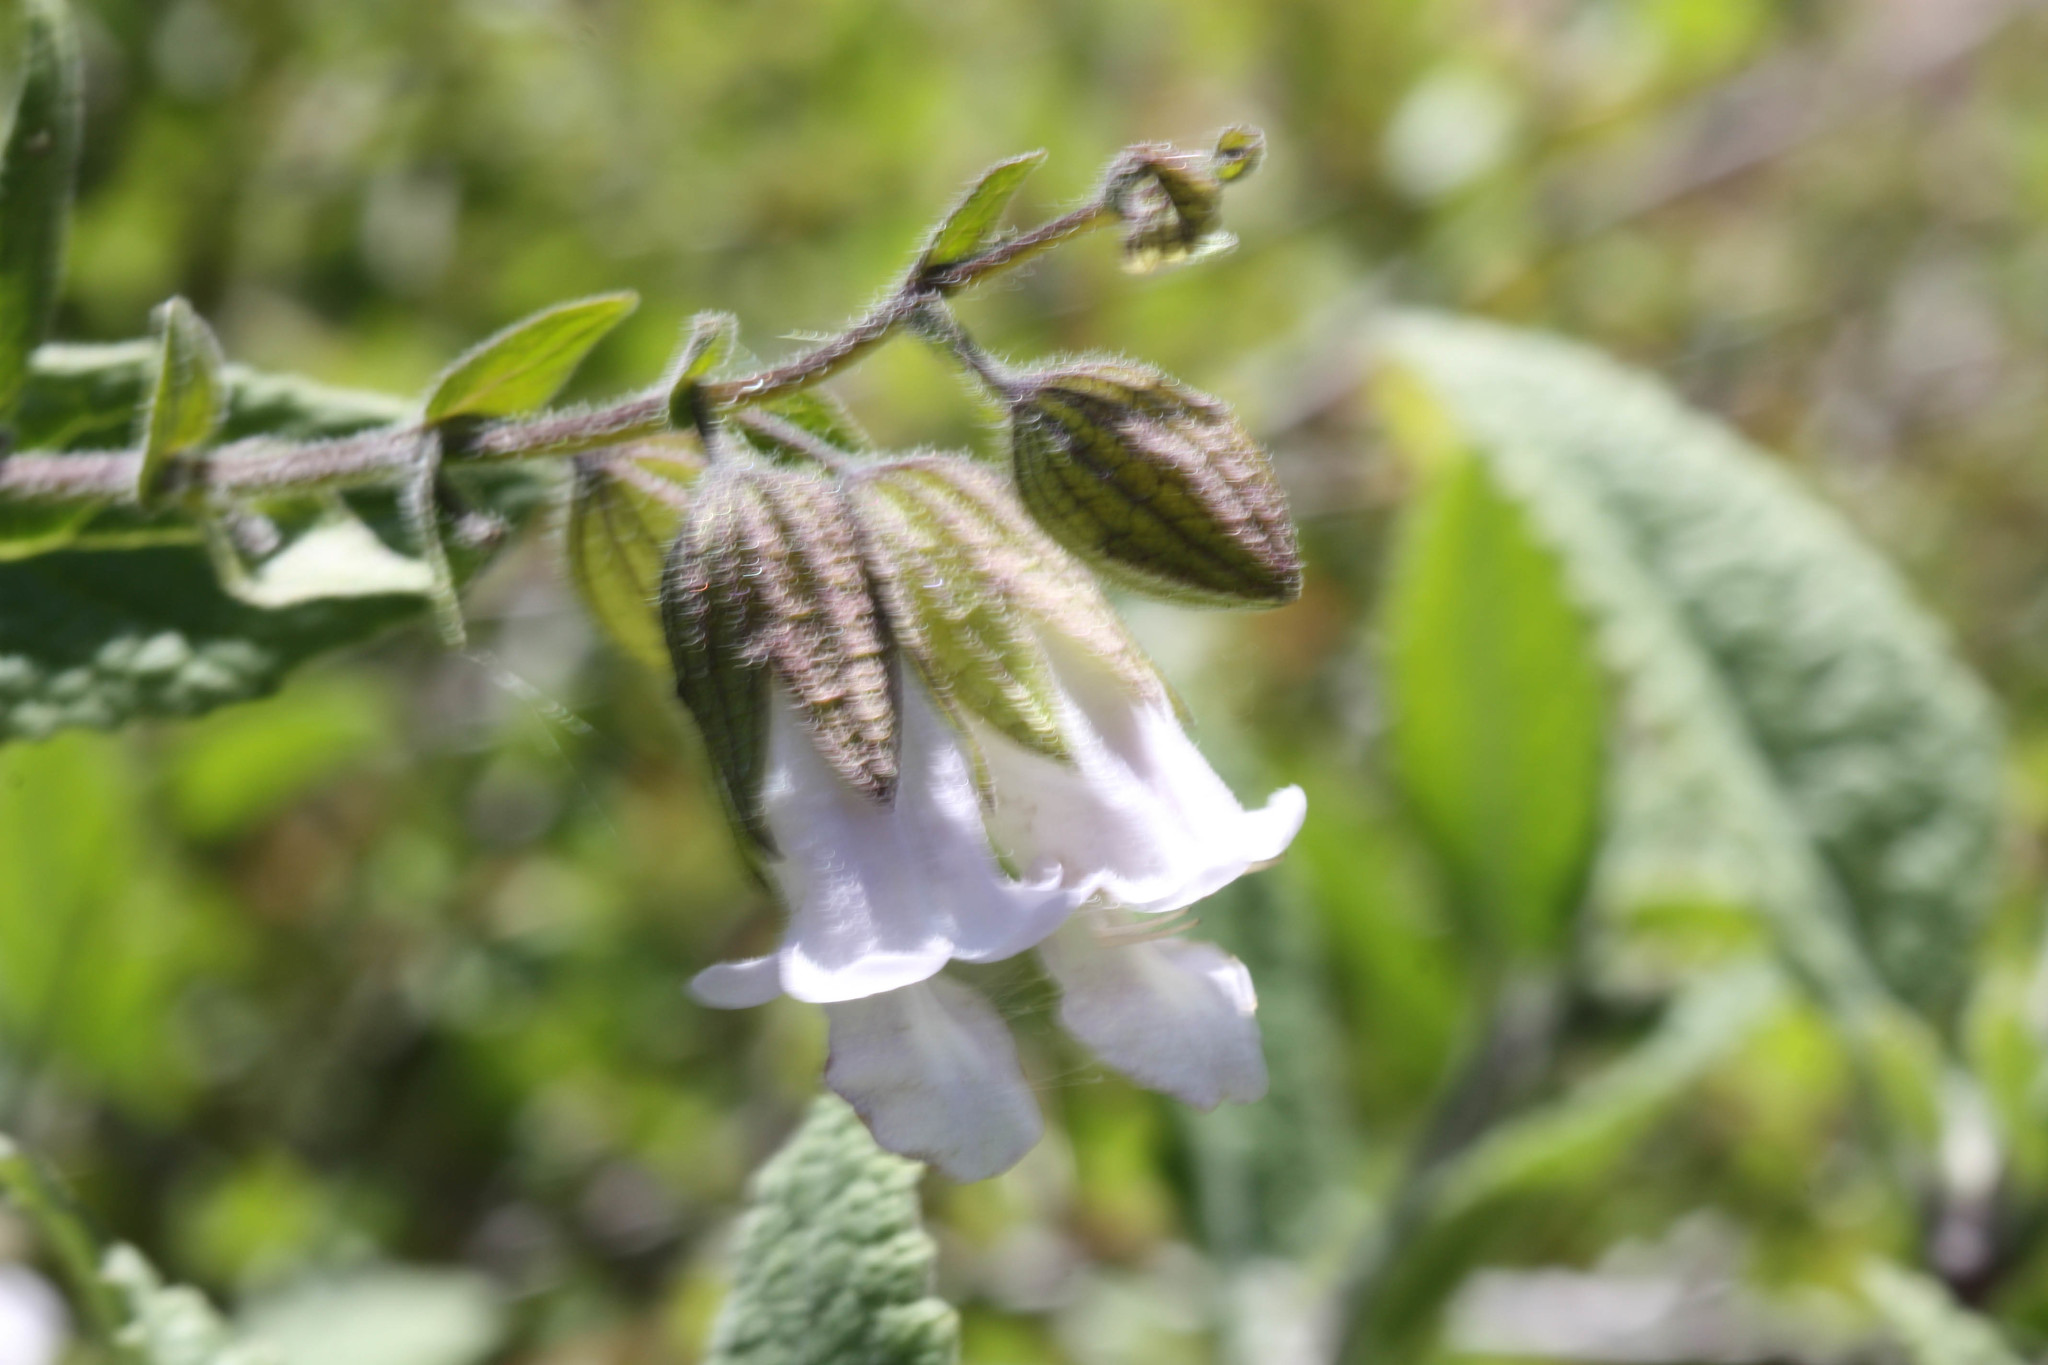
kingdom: Plantae
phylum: Tracheophyta
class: Magnoliopsida
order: Lamiales
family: Lamiaceae
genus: Lepechinia
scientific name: Lepechinia calycina
